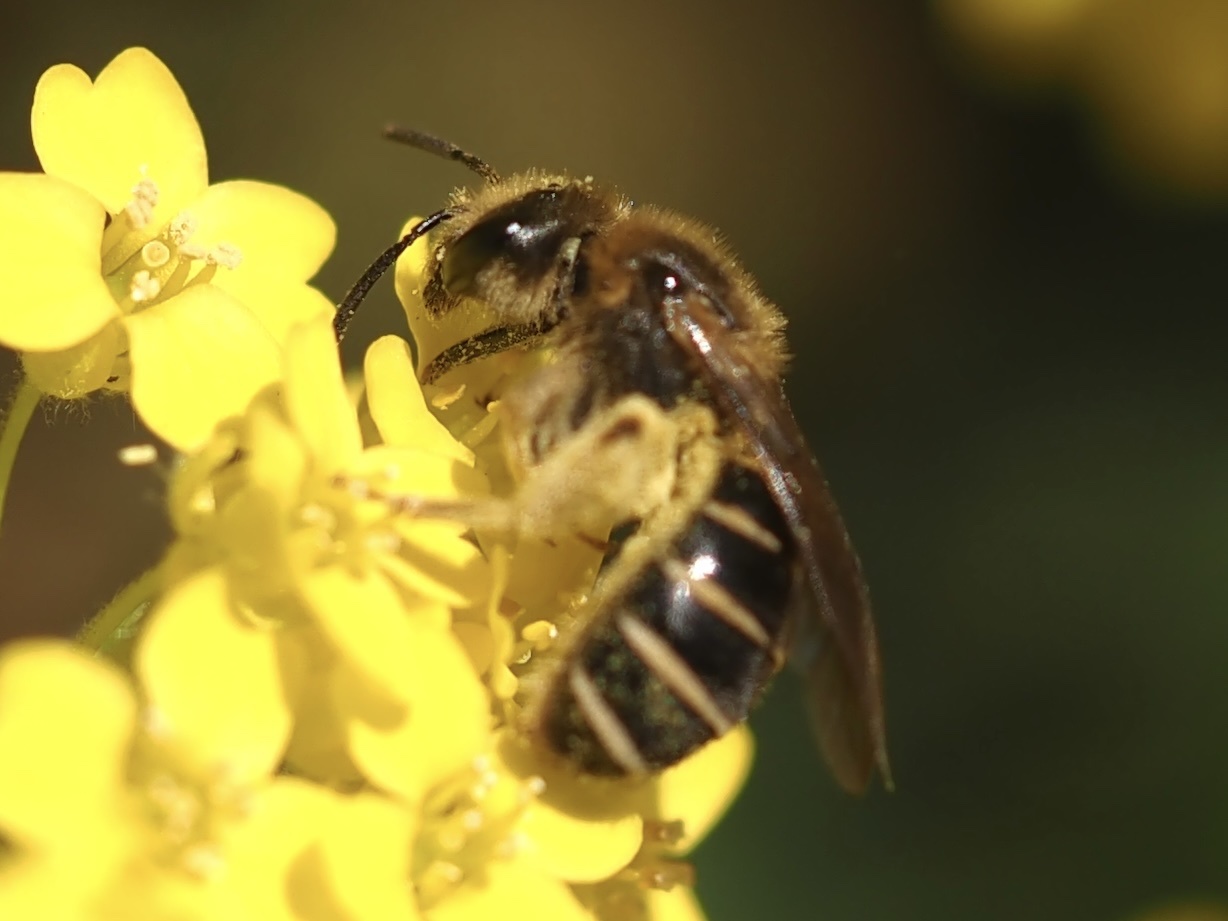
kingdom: Animalia
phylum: Arthropoda
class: Insecta
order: Hymenoptera
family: Halictidae
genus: Halictus
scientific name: Halictus rubicundus
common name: Orange-legged furrow bee
